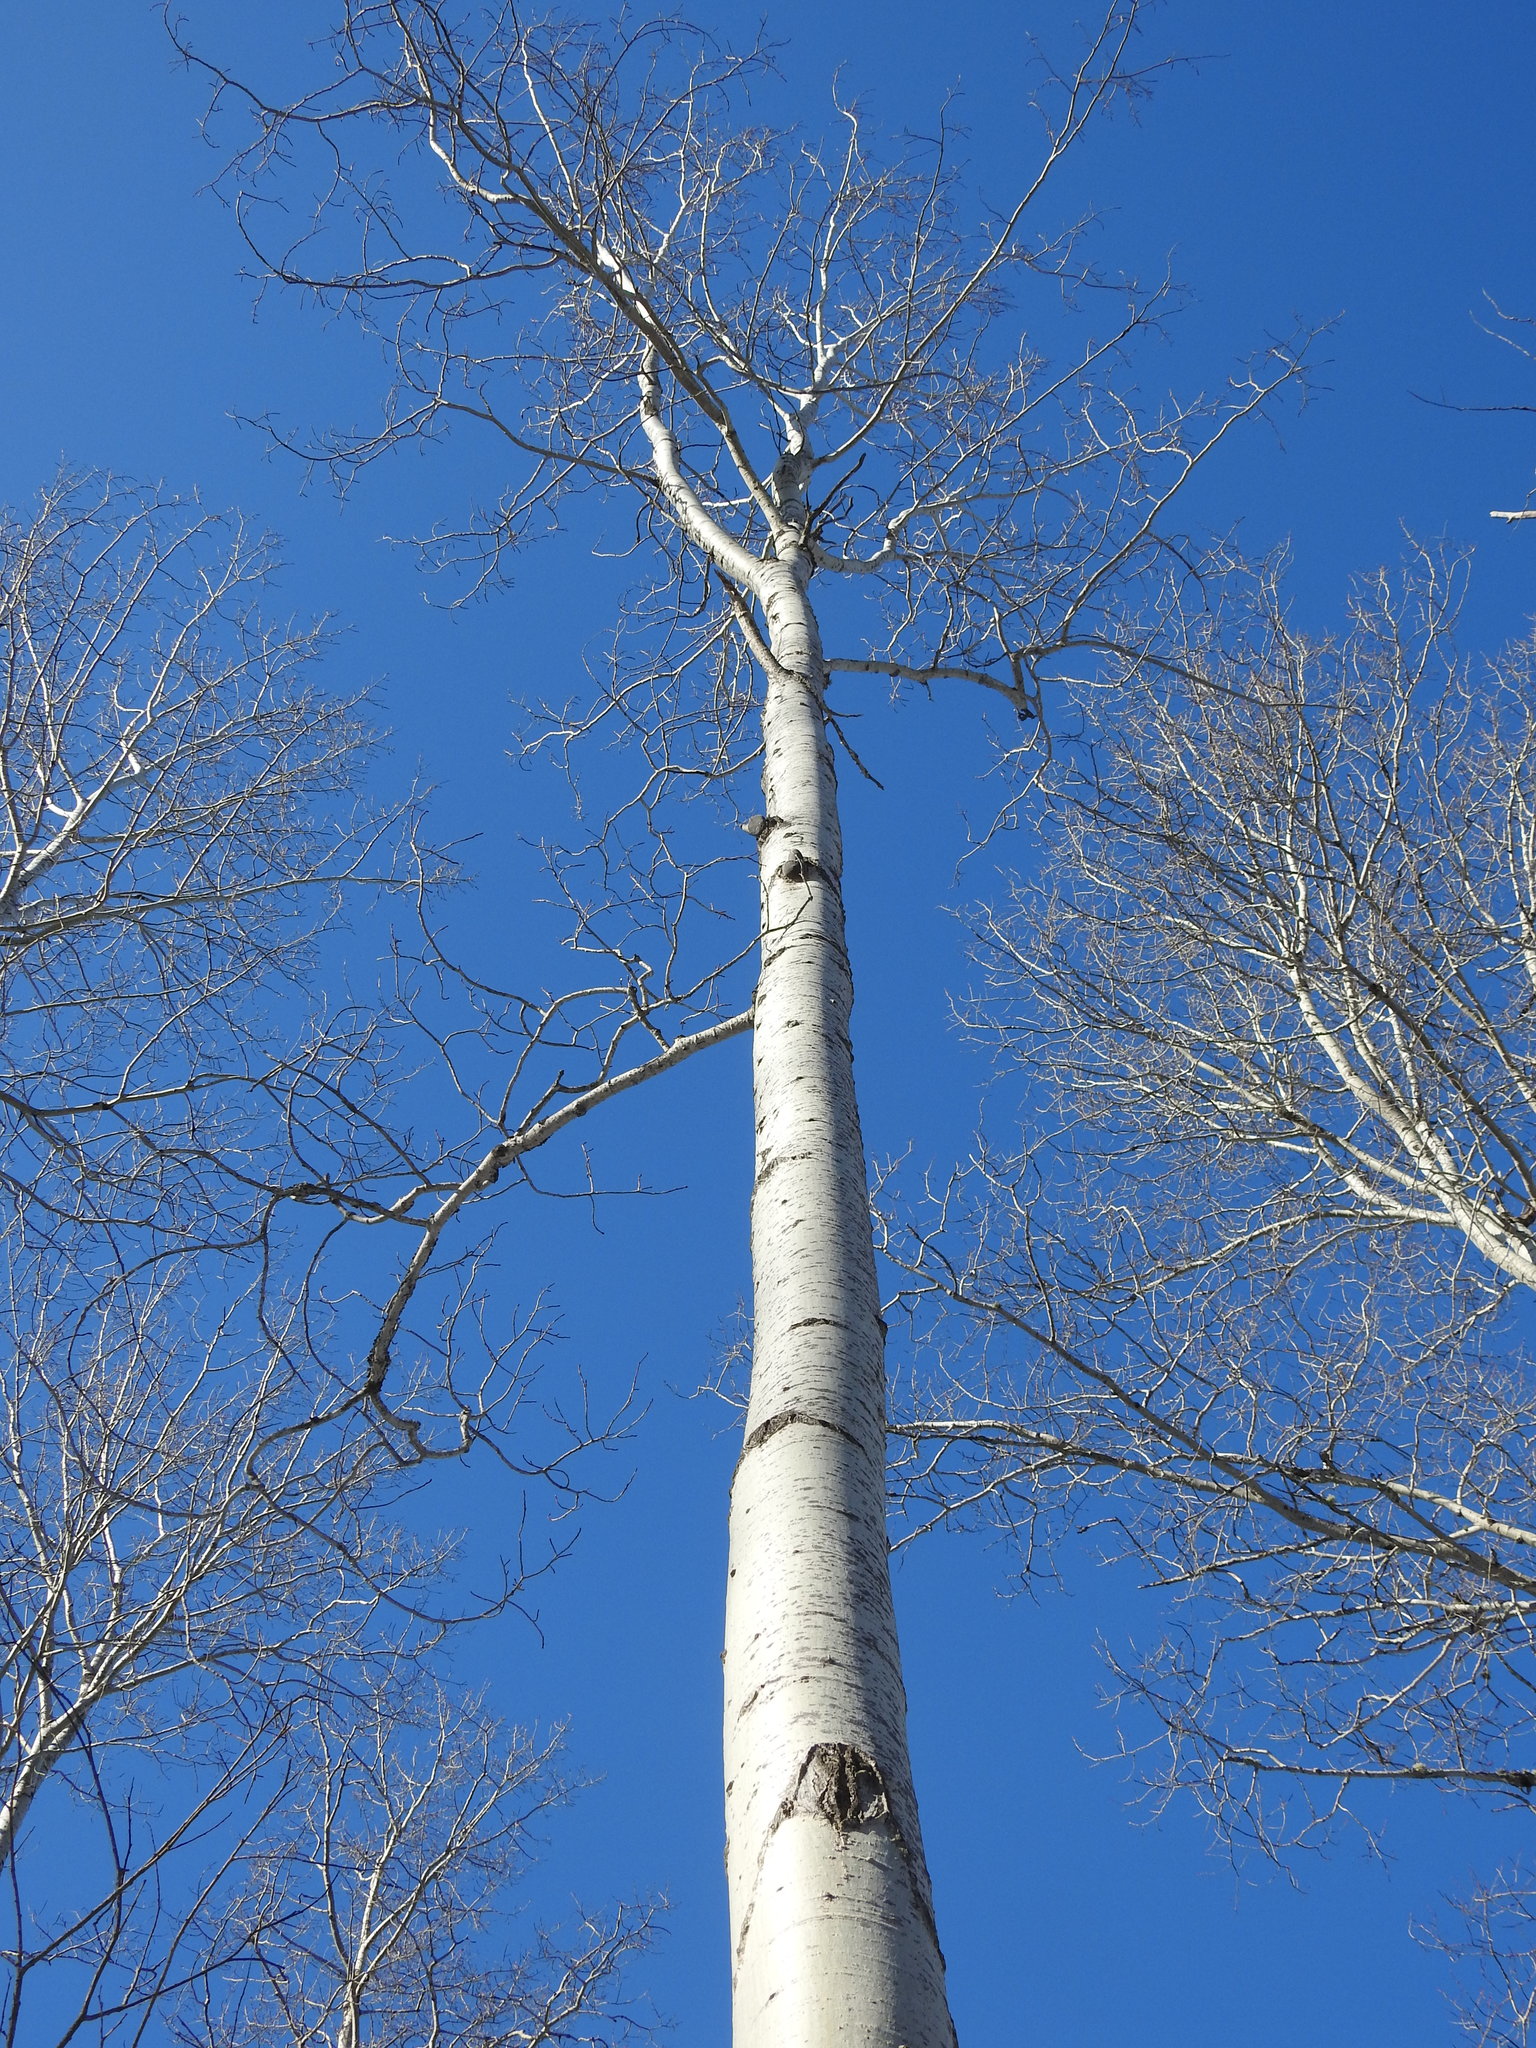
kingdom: Plantae
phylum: Tracheophyta
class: Magnoliopsida
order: Malpighiales
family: Salicaceae
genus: Populus
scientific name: Populus tremuloides
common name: Quaking aspen
